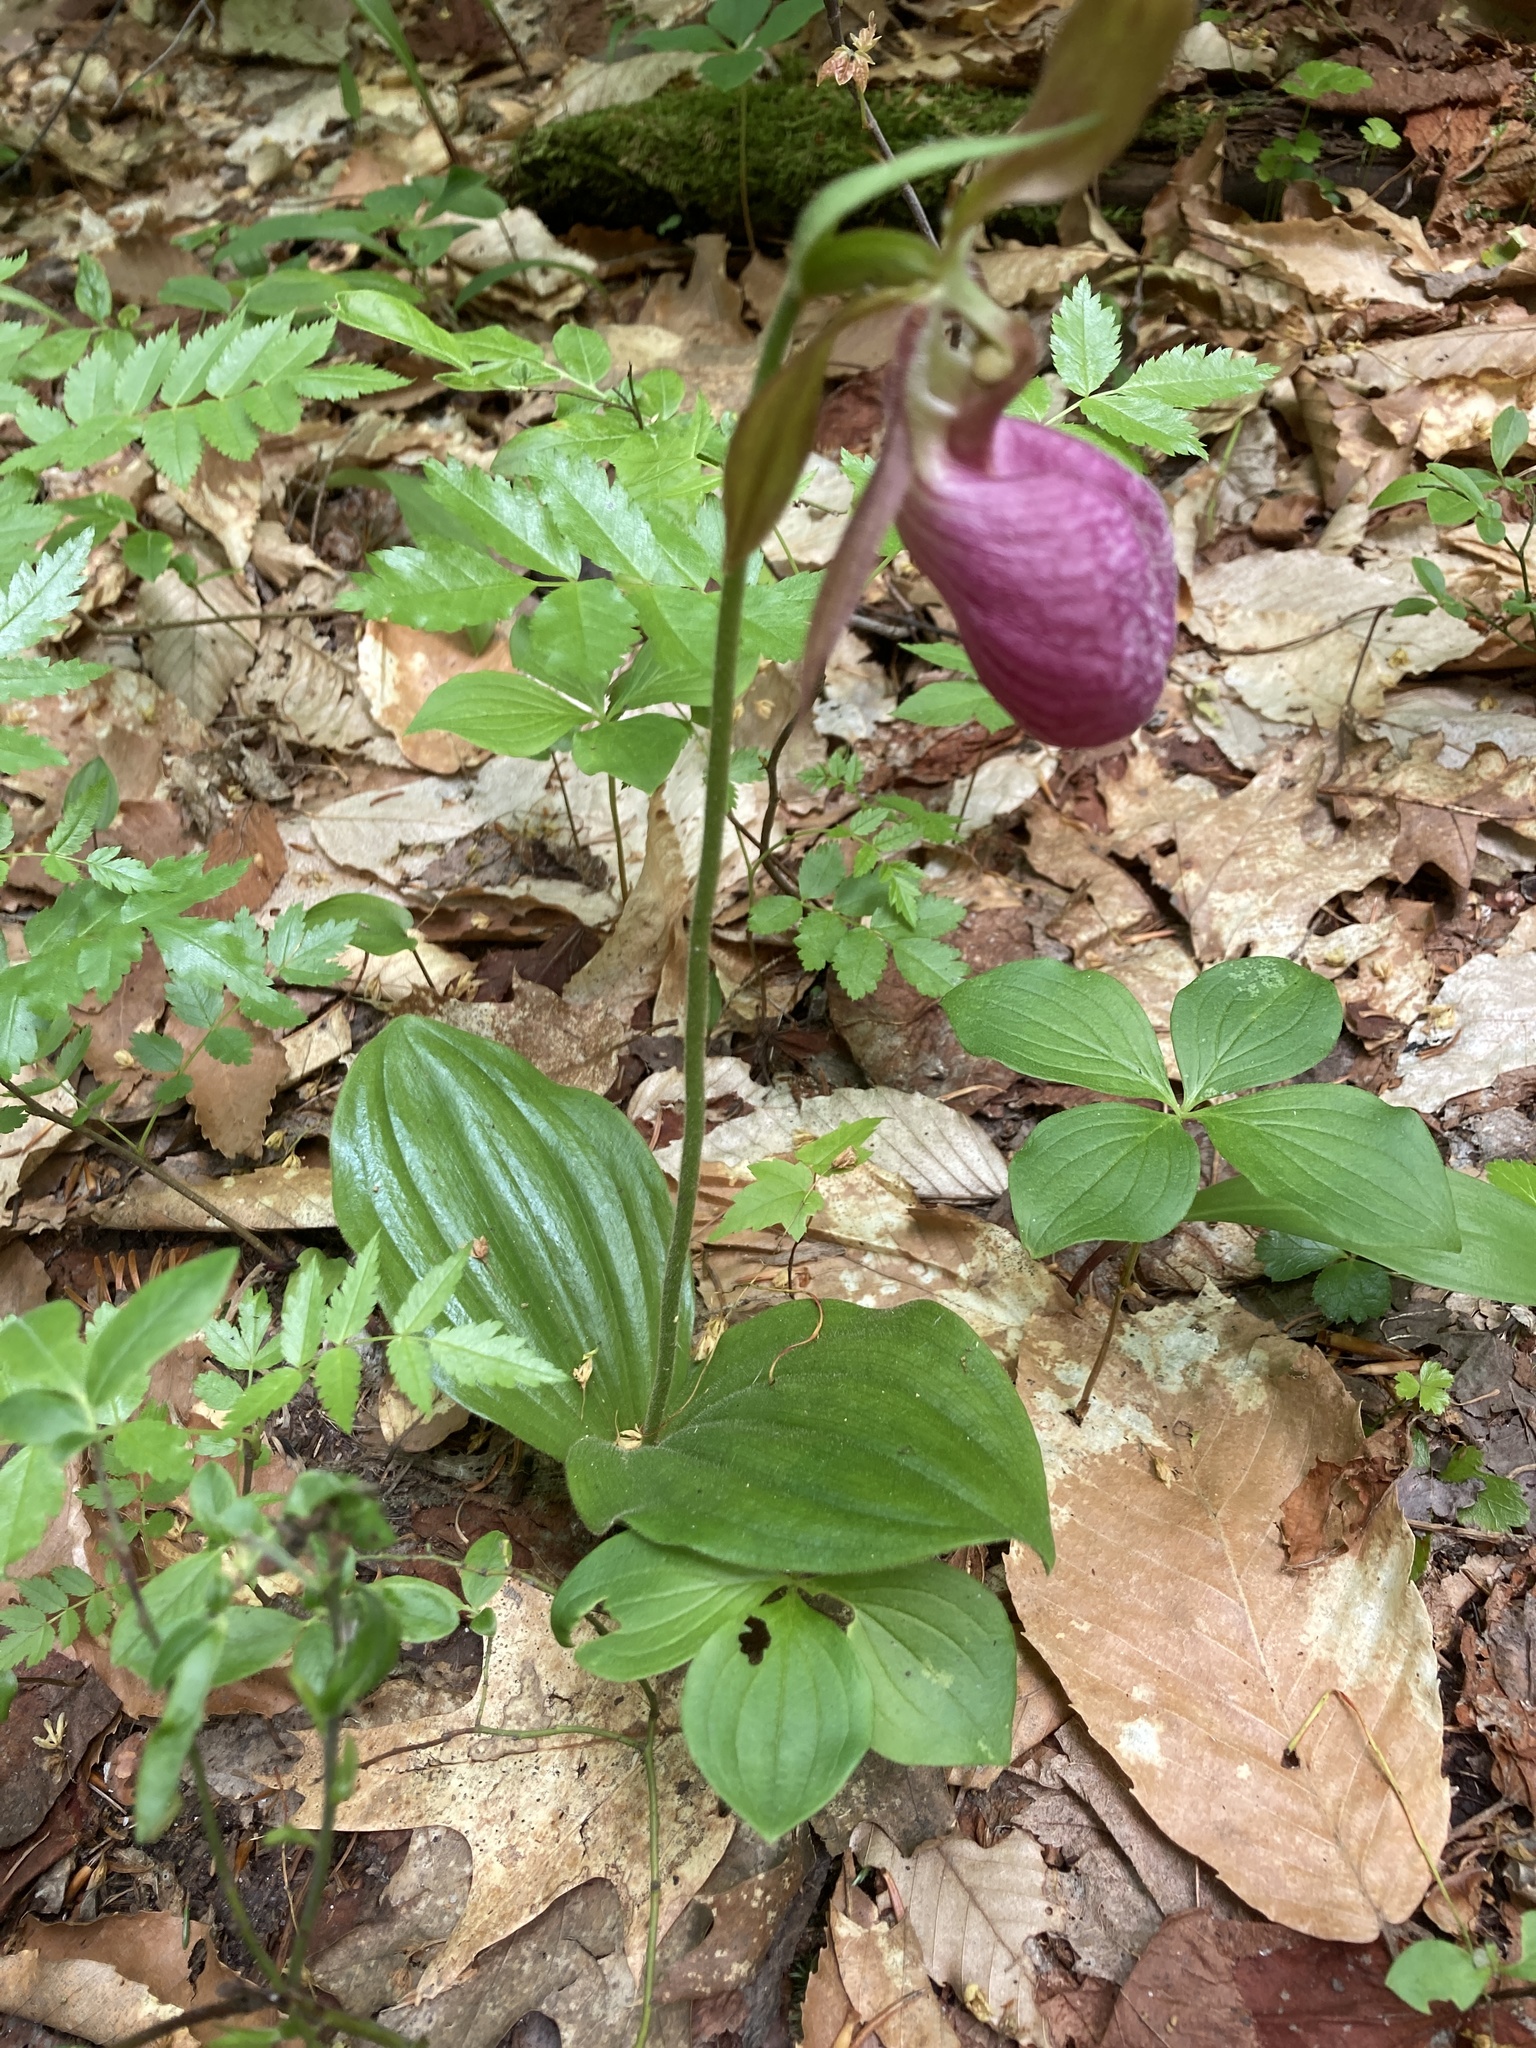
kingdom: Plantae
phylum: Tracheophyta
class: Liliopsida
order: Asparagales
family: Orchidaceae
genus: Cypripedium
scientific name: Cypripedium acaule
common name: Pink lady's-slipper
